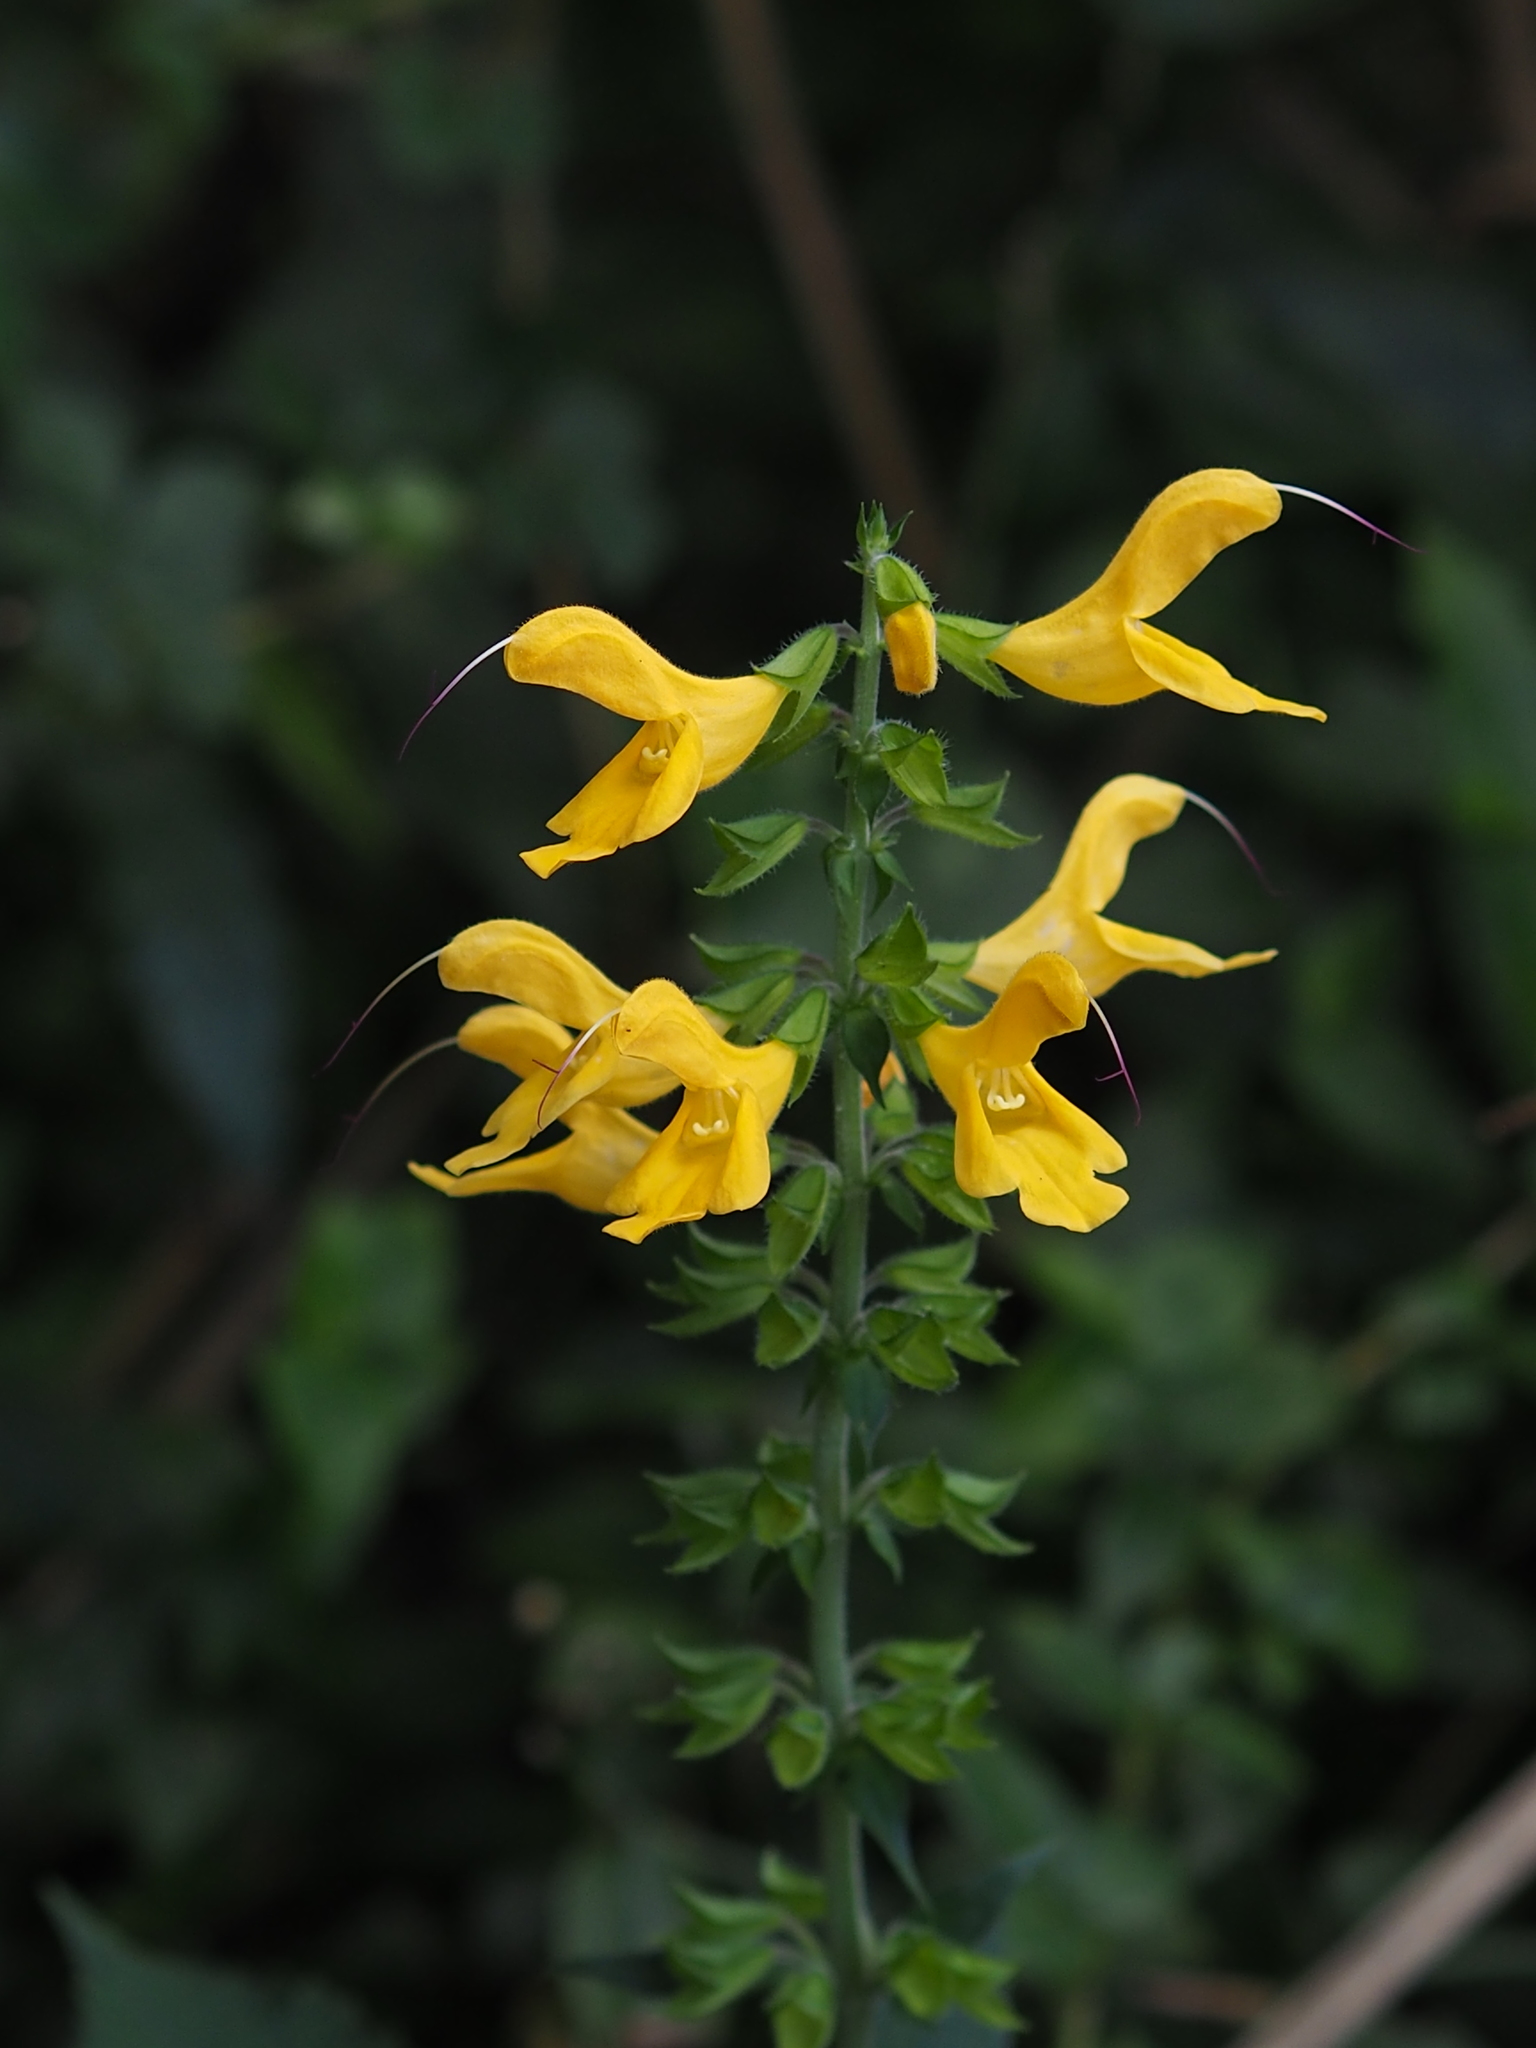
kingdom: Plantae
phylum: Tracheophyta
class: Magnoliopsida
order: Lamiales
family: Lamiaceae
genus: Salvia
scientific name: Salvia japonica
